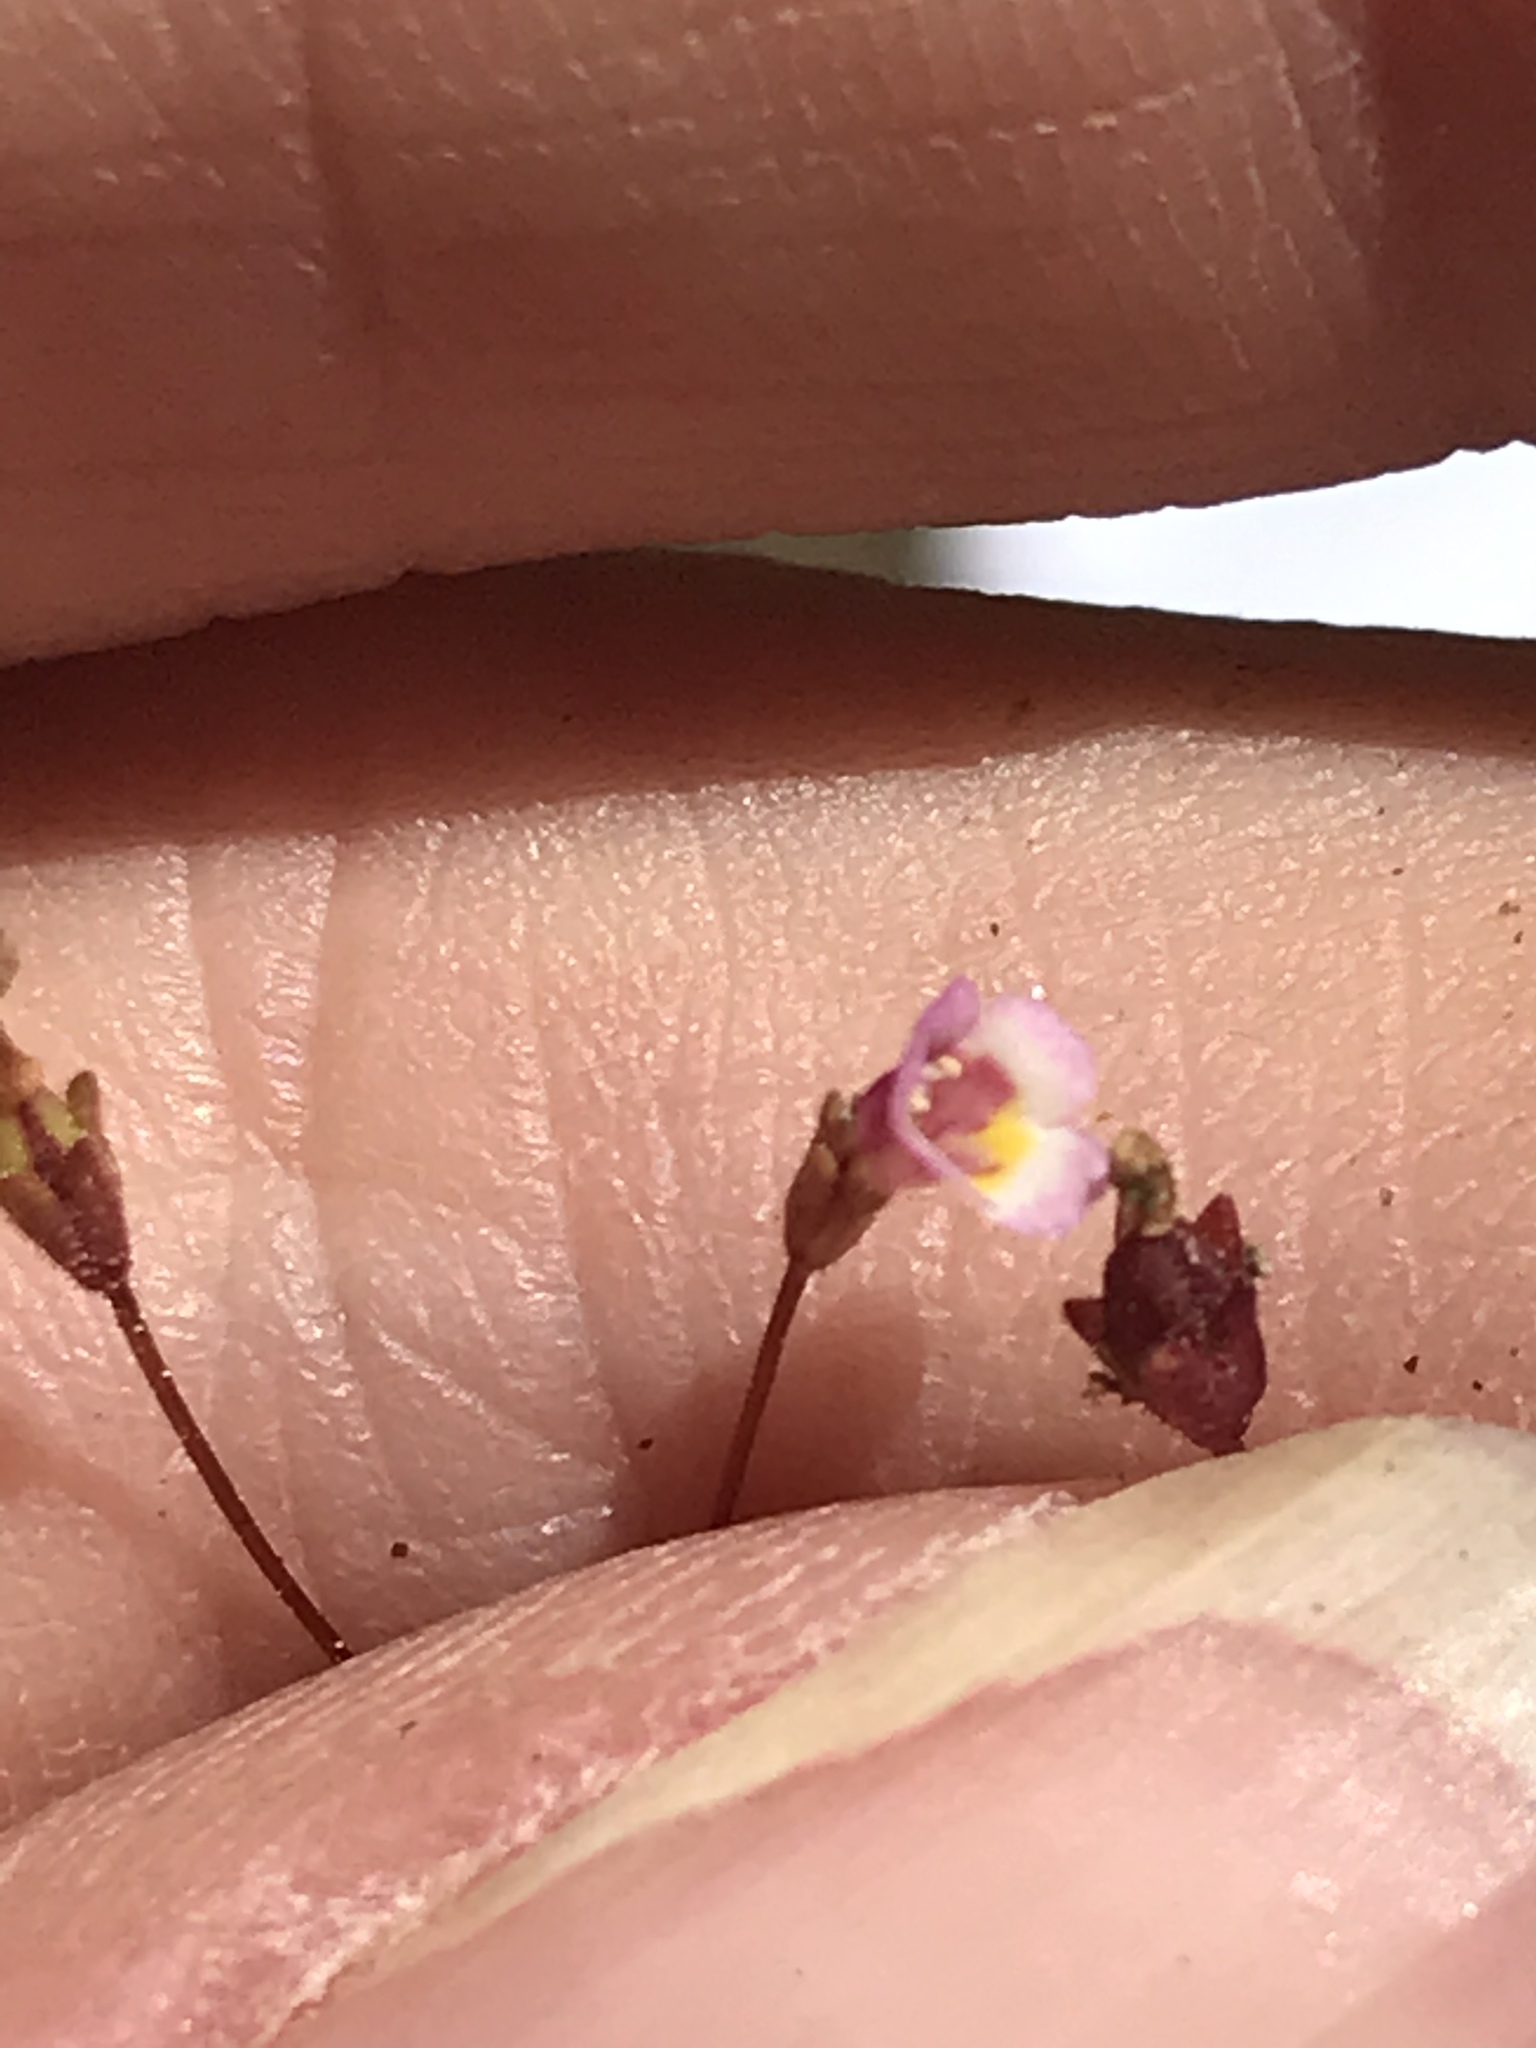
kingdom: Plantae
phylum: Tracheophyta
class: Magnoliopsida
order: Lamiales
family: Phrymaceae
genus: Erythranthe
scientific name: Erythranthe exigua
